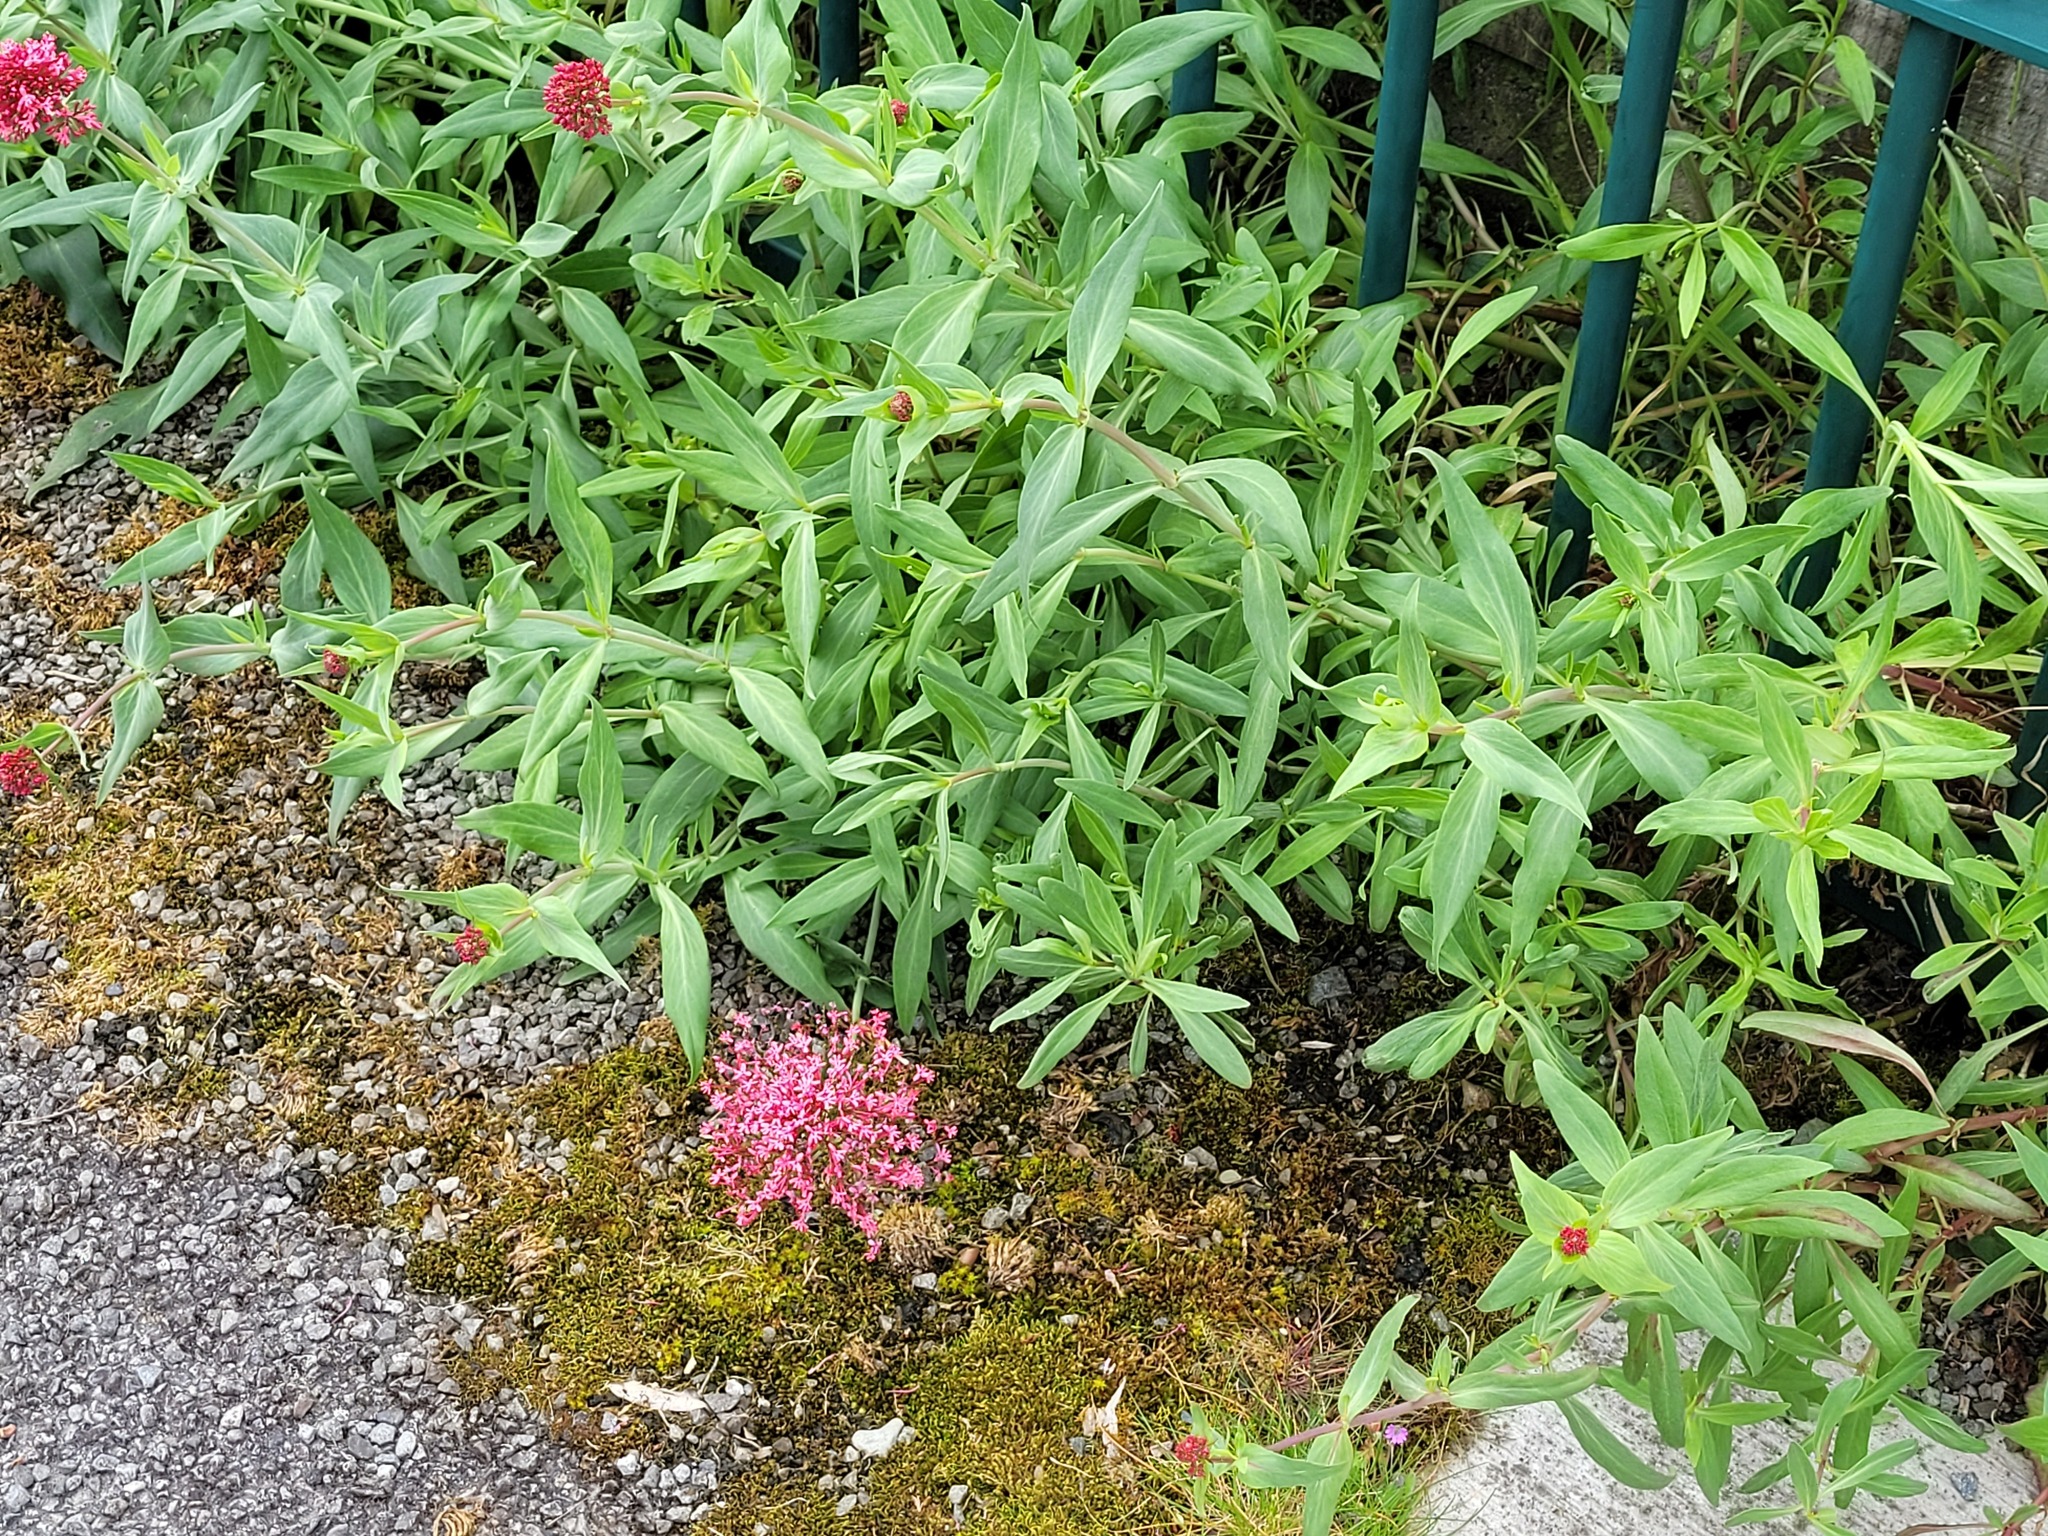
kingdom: Plantae
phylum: Tracheophyta
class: Magnoliopsida
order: Dipsacales
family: Caprifoliaceae
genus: Centranthus
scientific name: Centranthus ruber
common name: Red valerian
